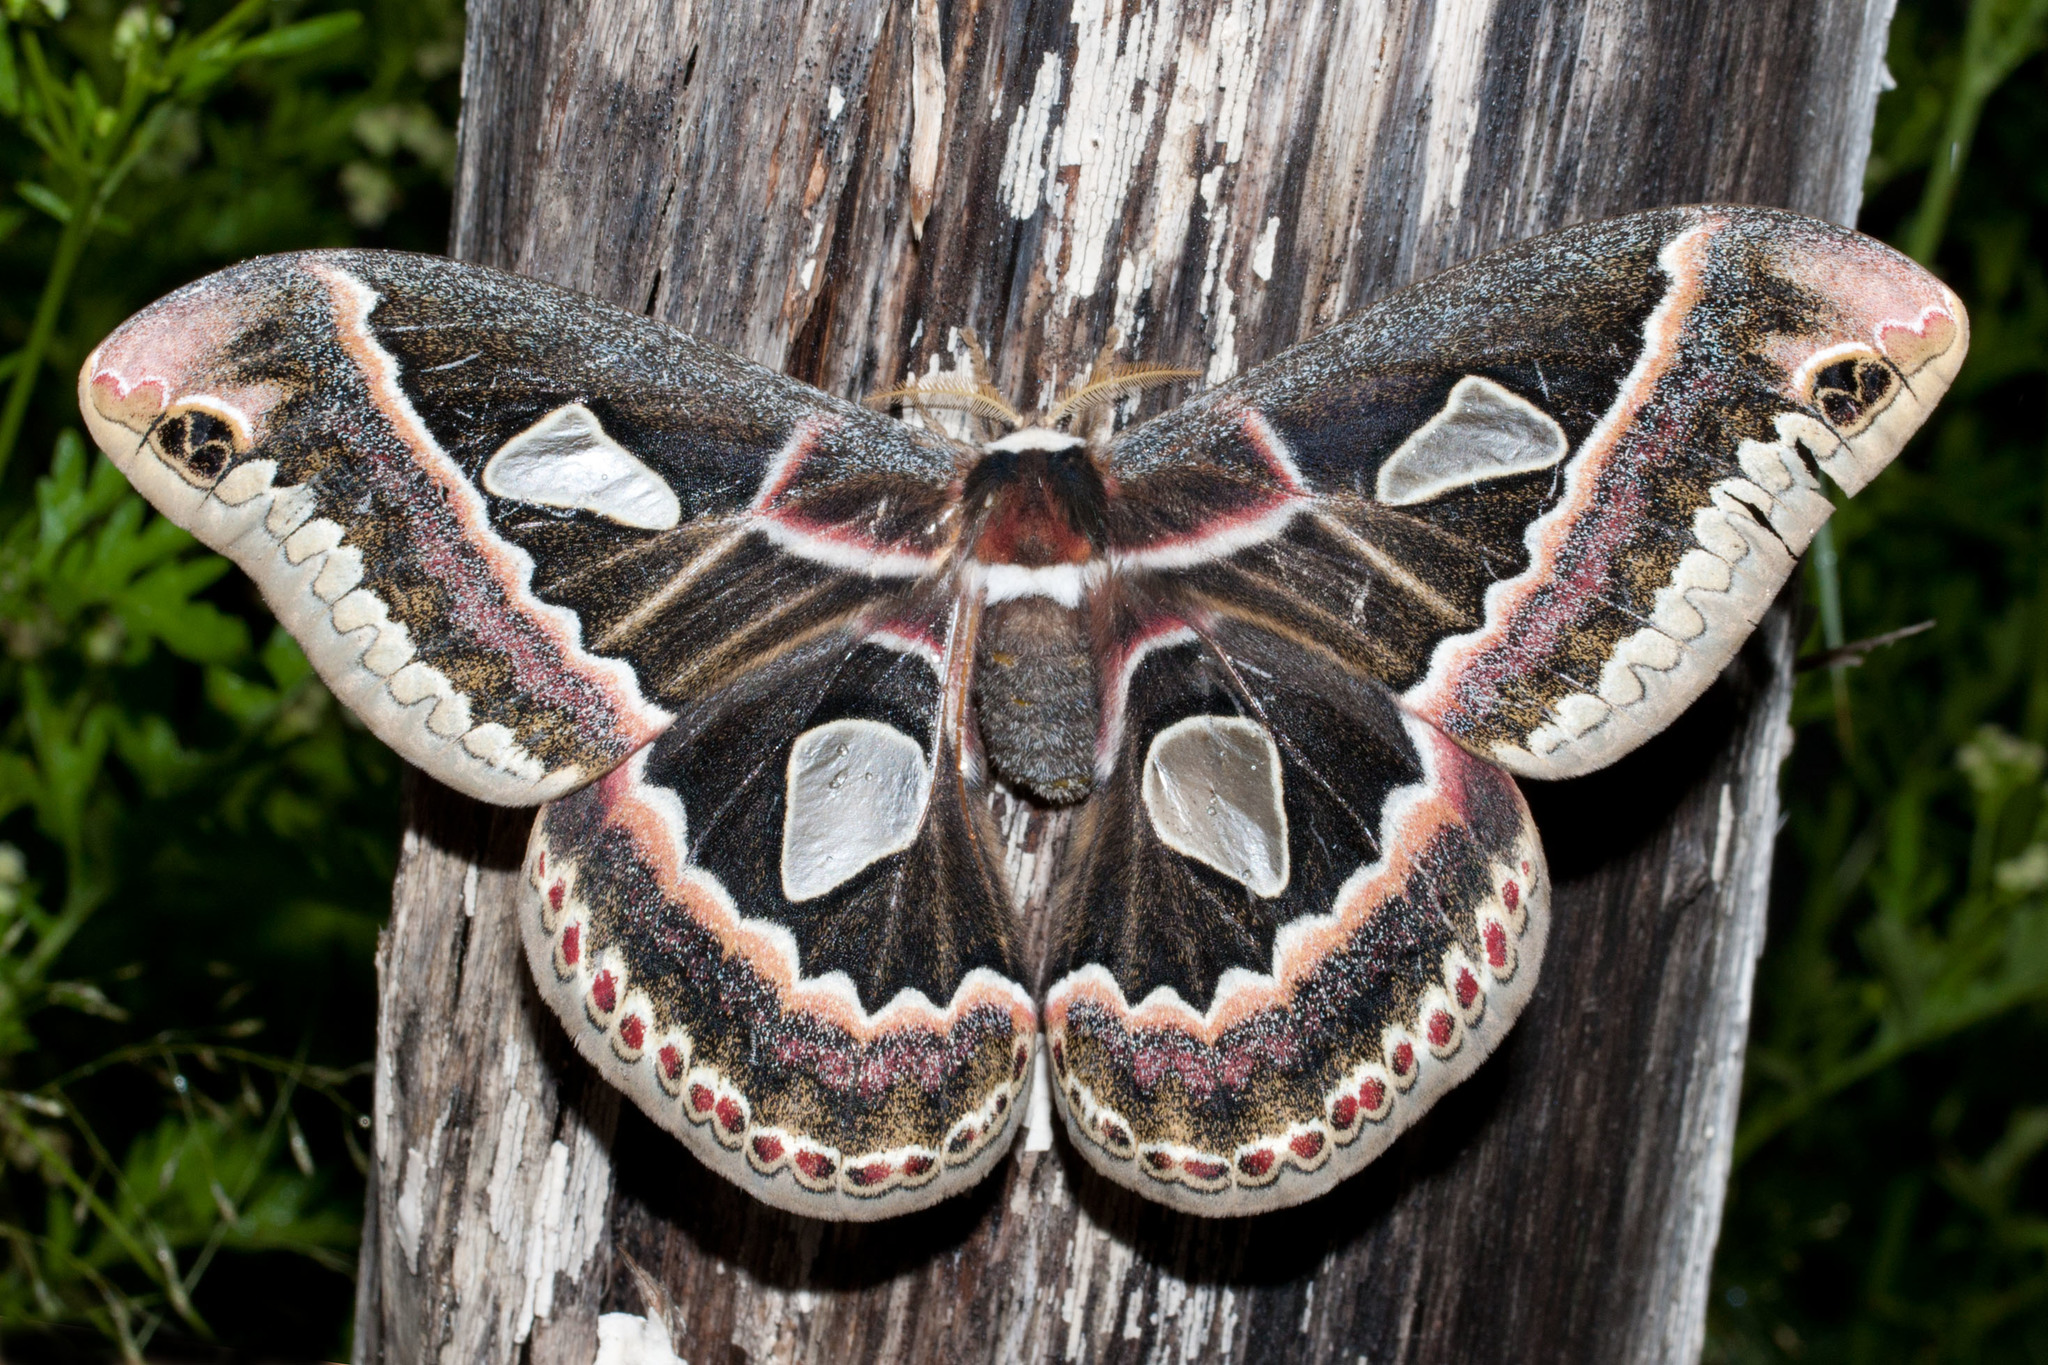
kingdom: Animalia
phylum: Arthropoda
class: Insecta
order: Lepidoptera
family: Saturniidae
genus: Rothschildia
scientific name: Rothschildia jorulloides
